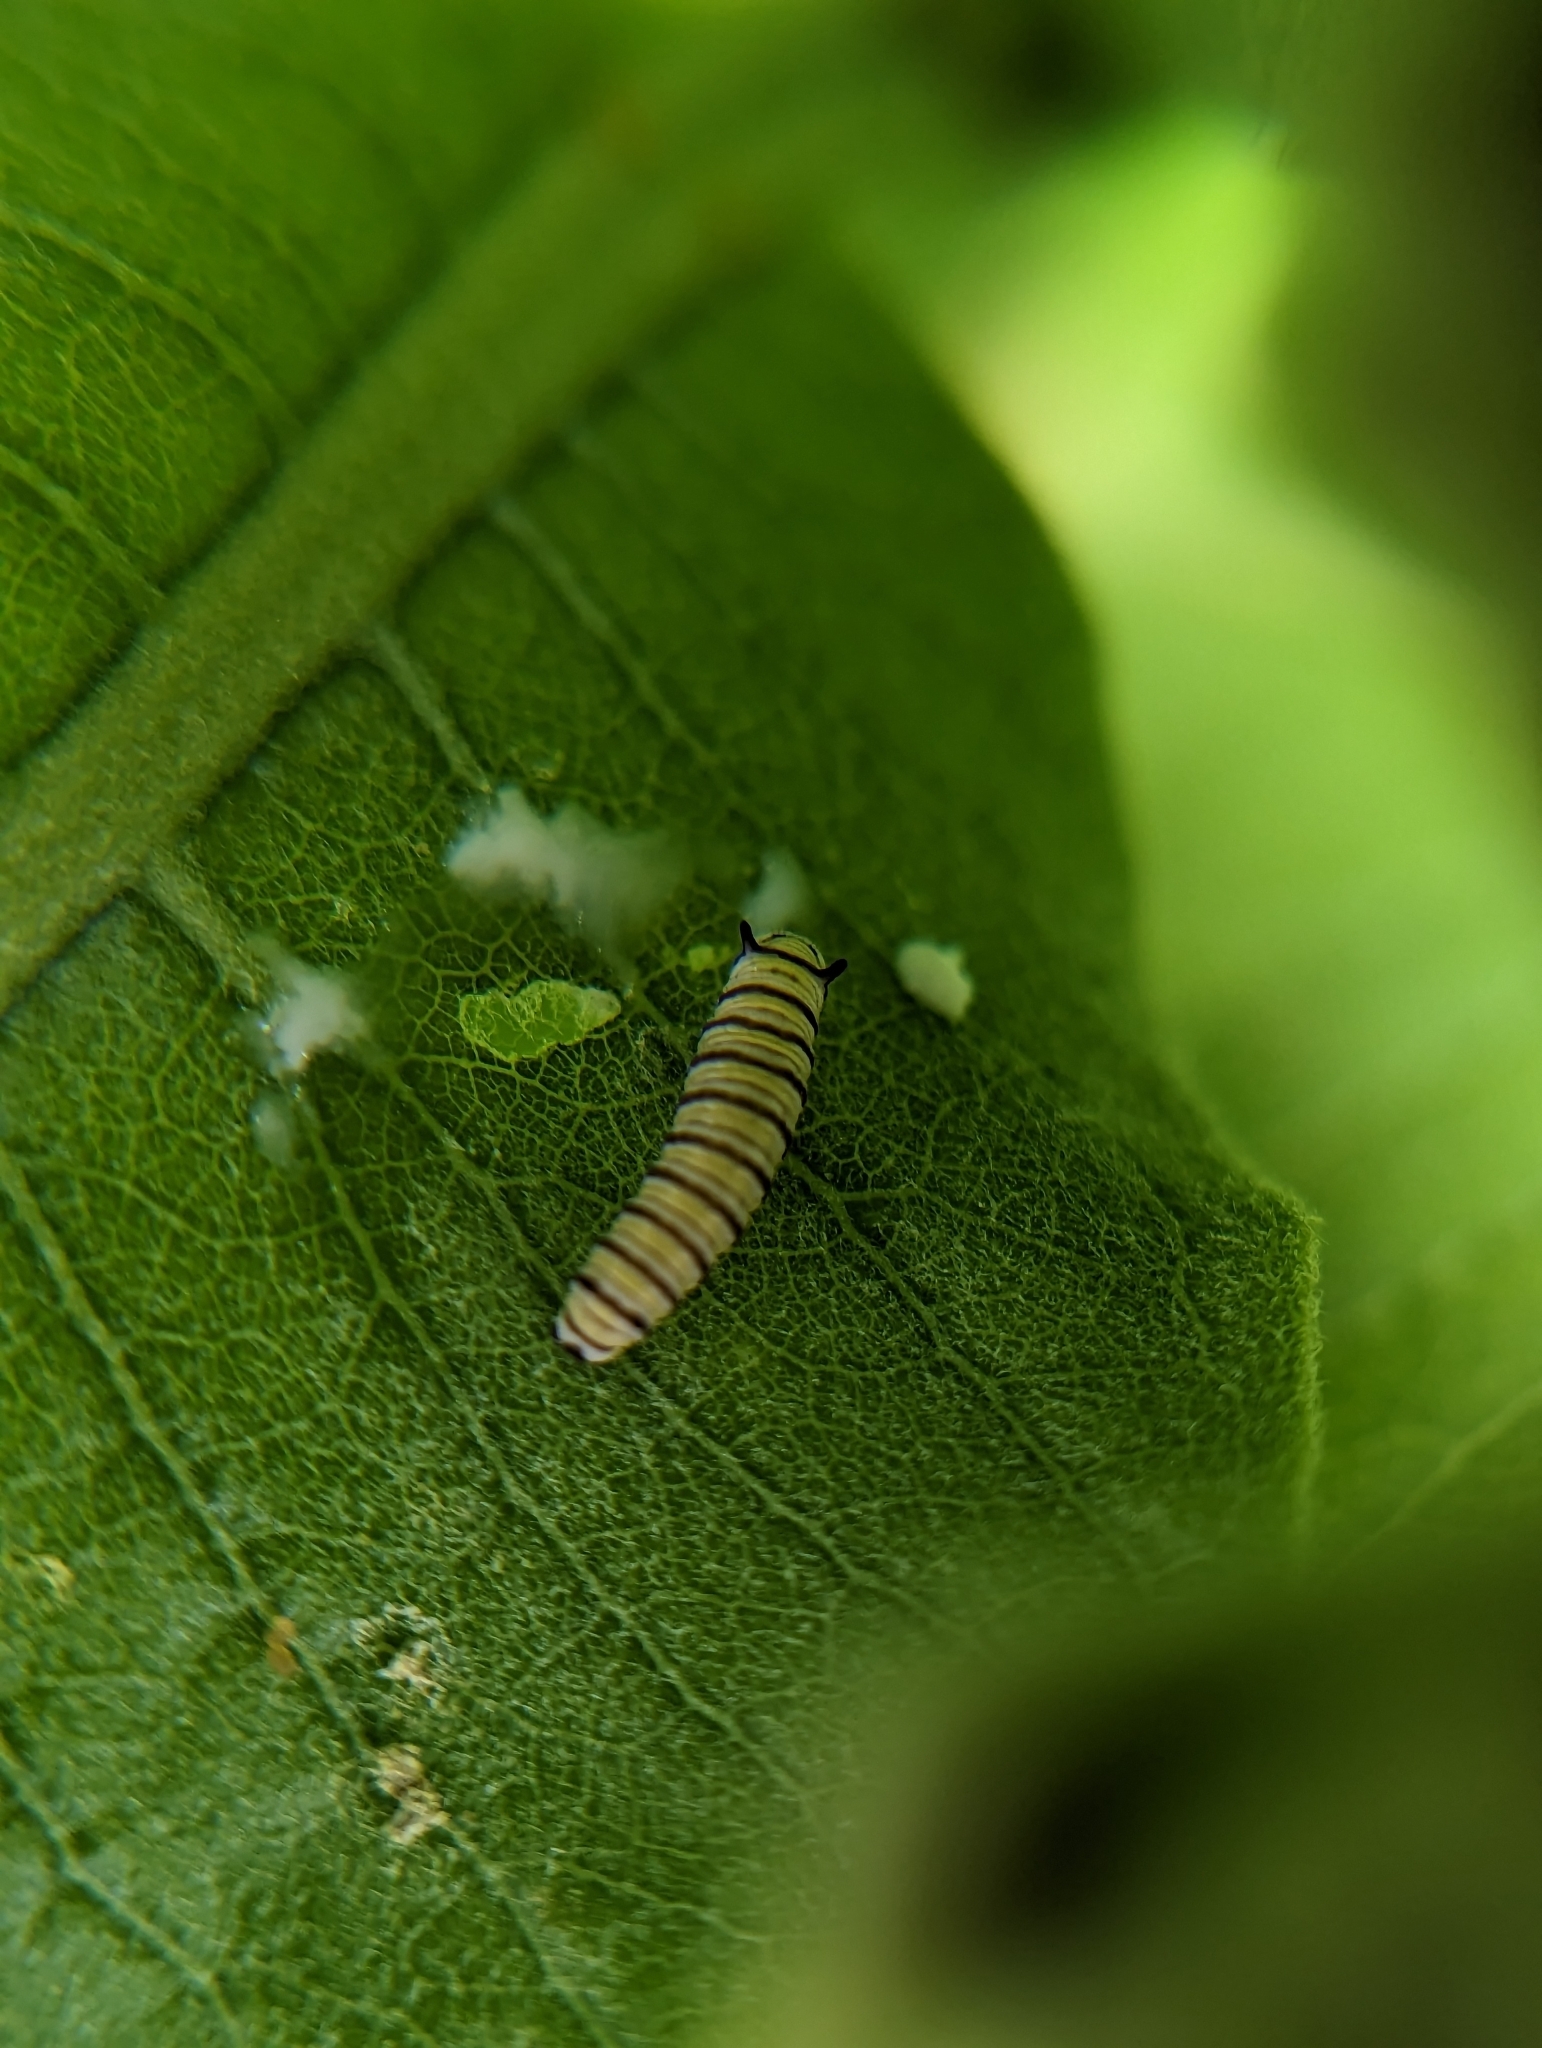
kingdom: Animalia
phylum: Arthropoda
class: Insecta
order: Lepidoptera
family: Nymphalidae
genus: Danaus
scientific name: Danaus plexippus
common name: Monarch
